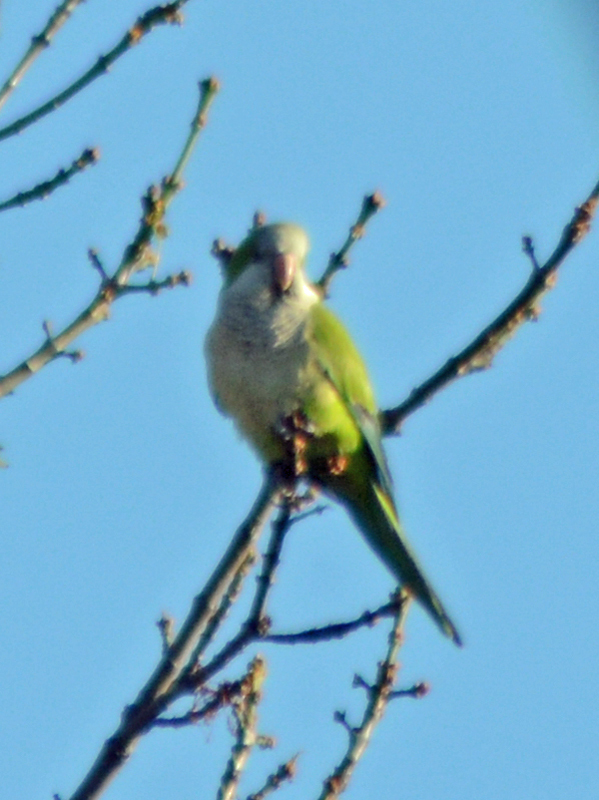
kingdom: Animalia
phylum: Chordata
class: Aves
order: Psittaciformes
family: Psittacidae
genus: Myiopsitta
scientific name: Myiopsitta monachus
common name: Monk parakeet
